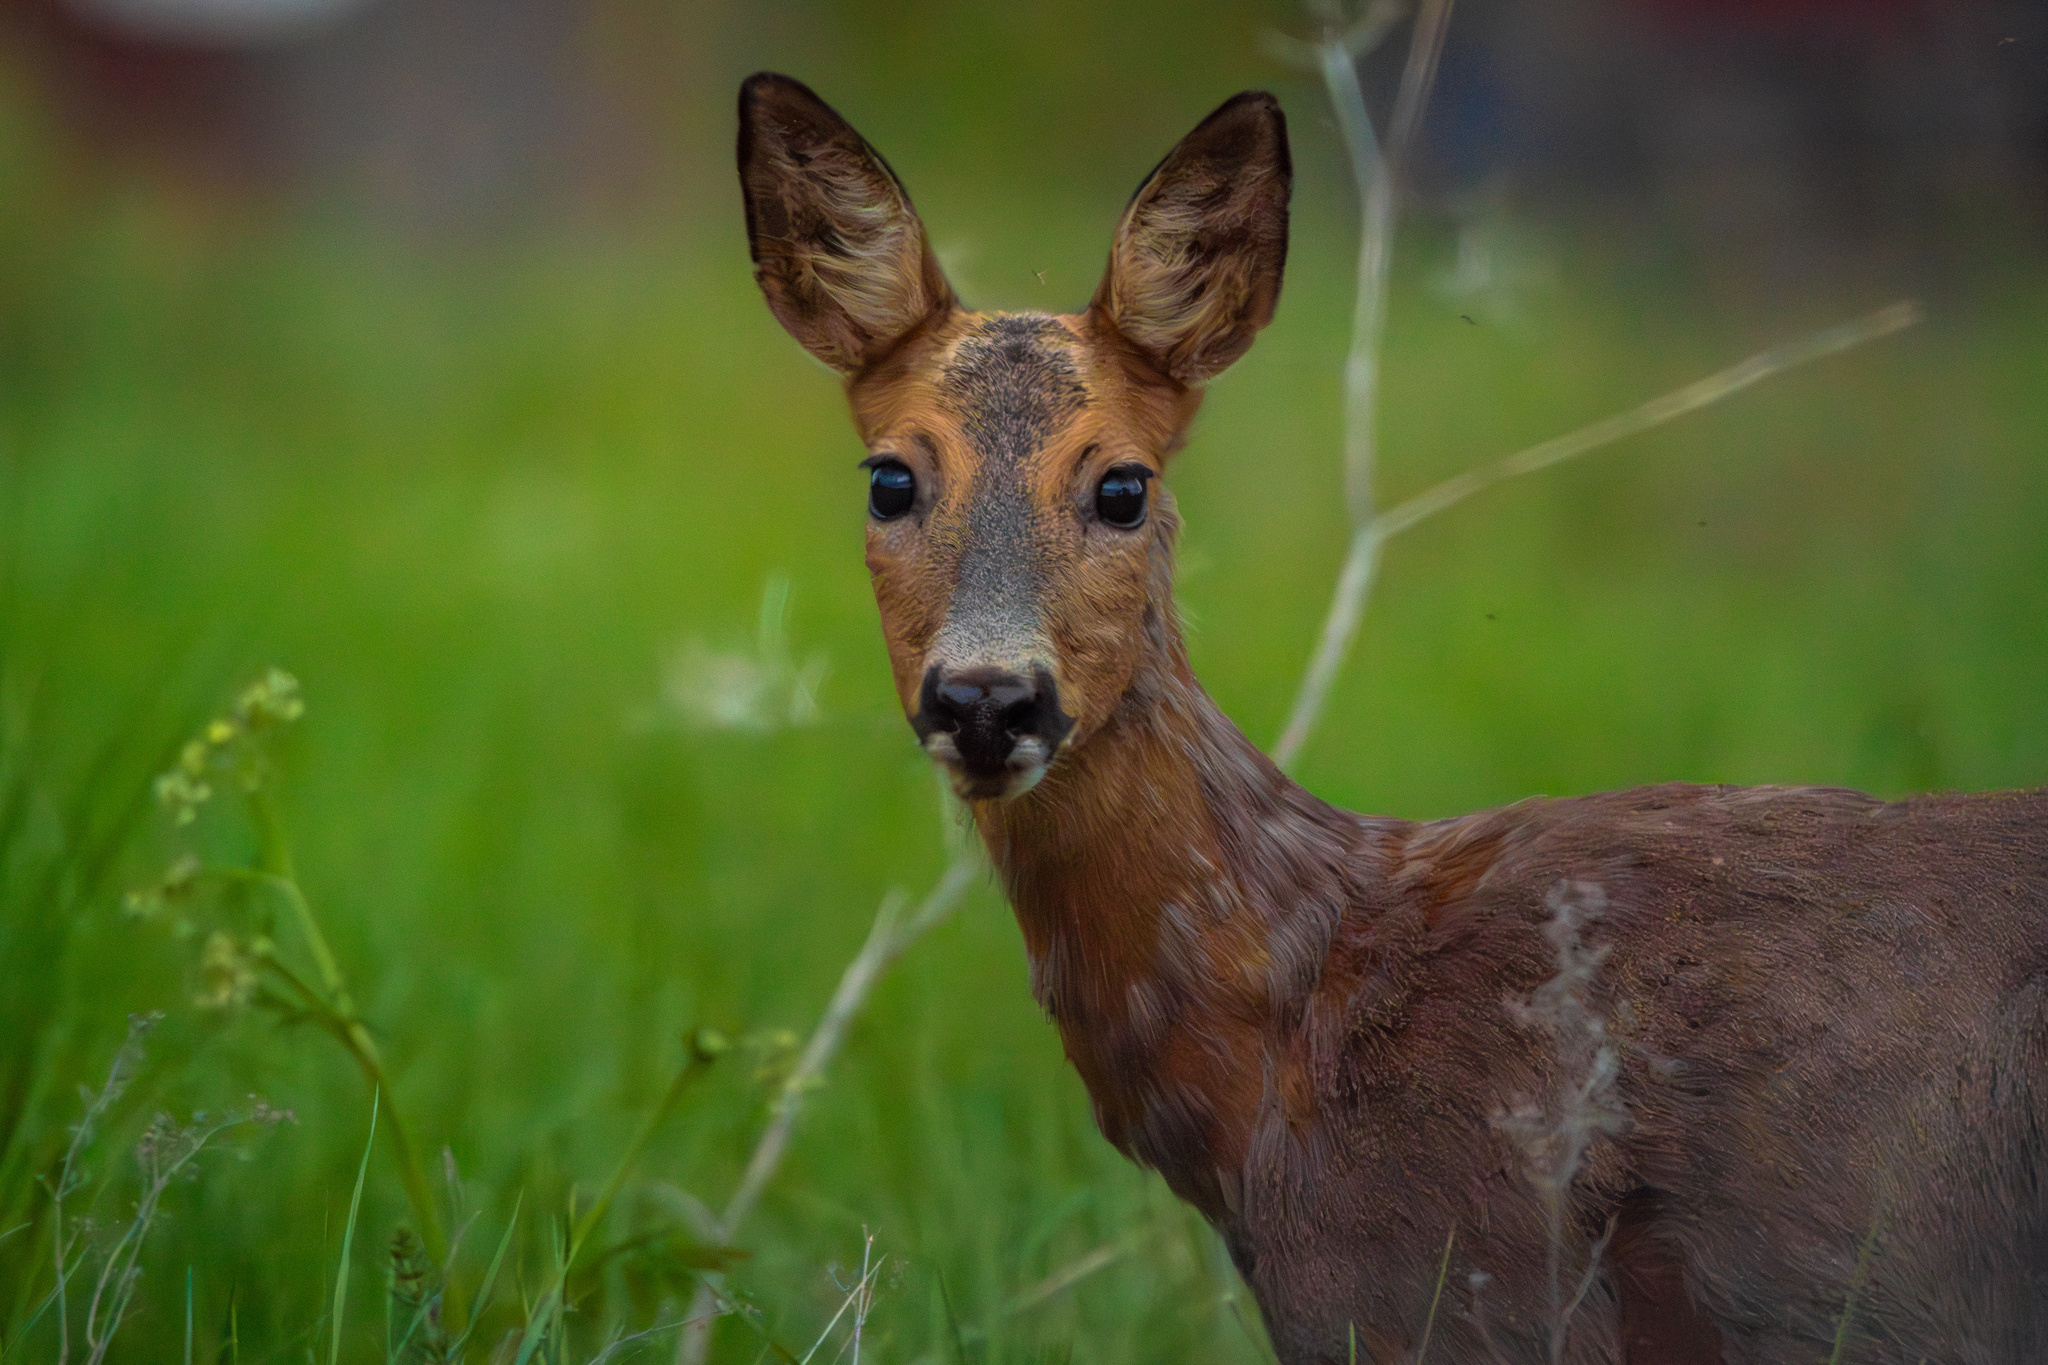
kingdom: Animalia
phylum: Chordata
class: Mammalia
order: Artiodactyla
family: Cervidae
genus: Capreolus
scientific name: Capreolus capreolus
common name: Western roe deer
